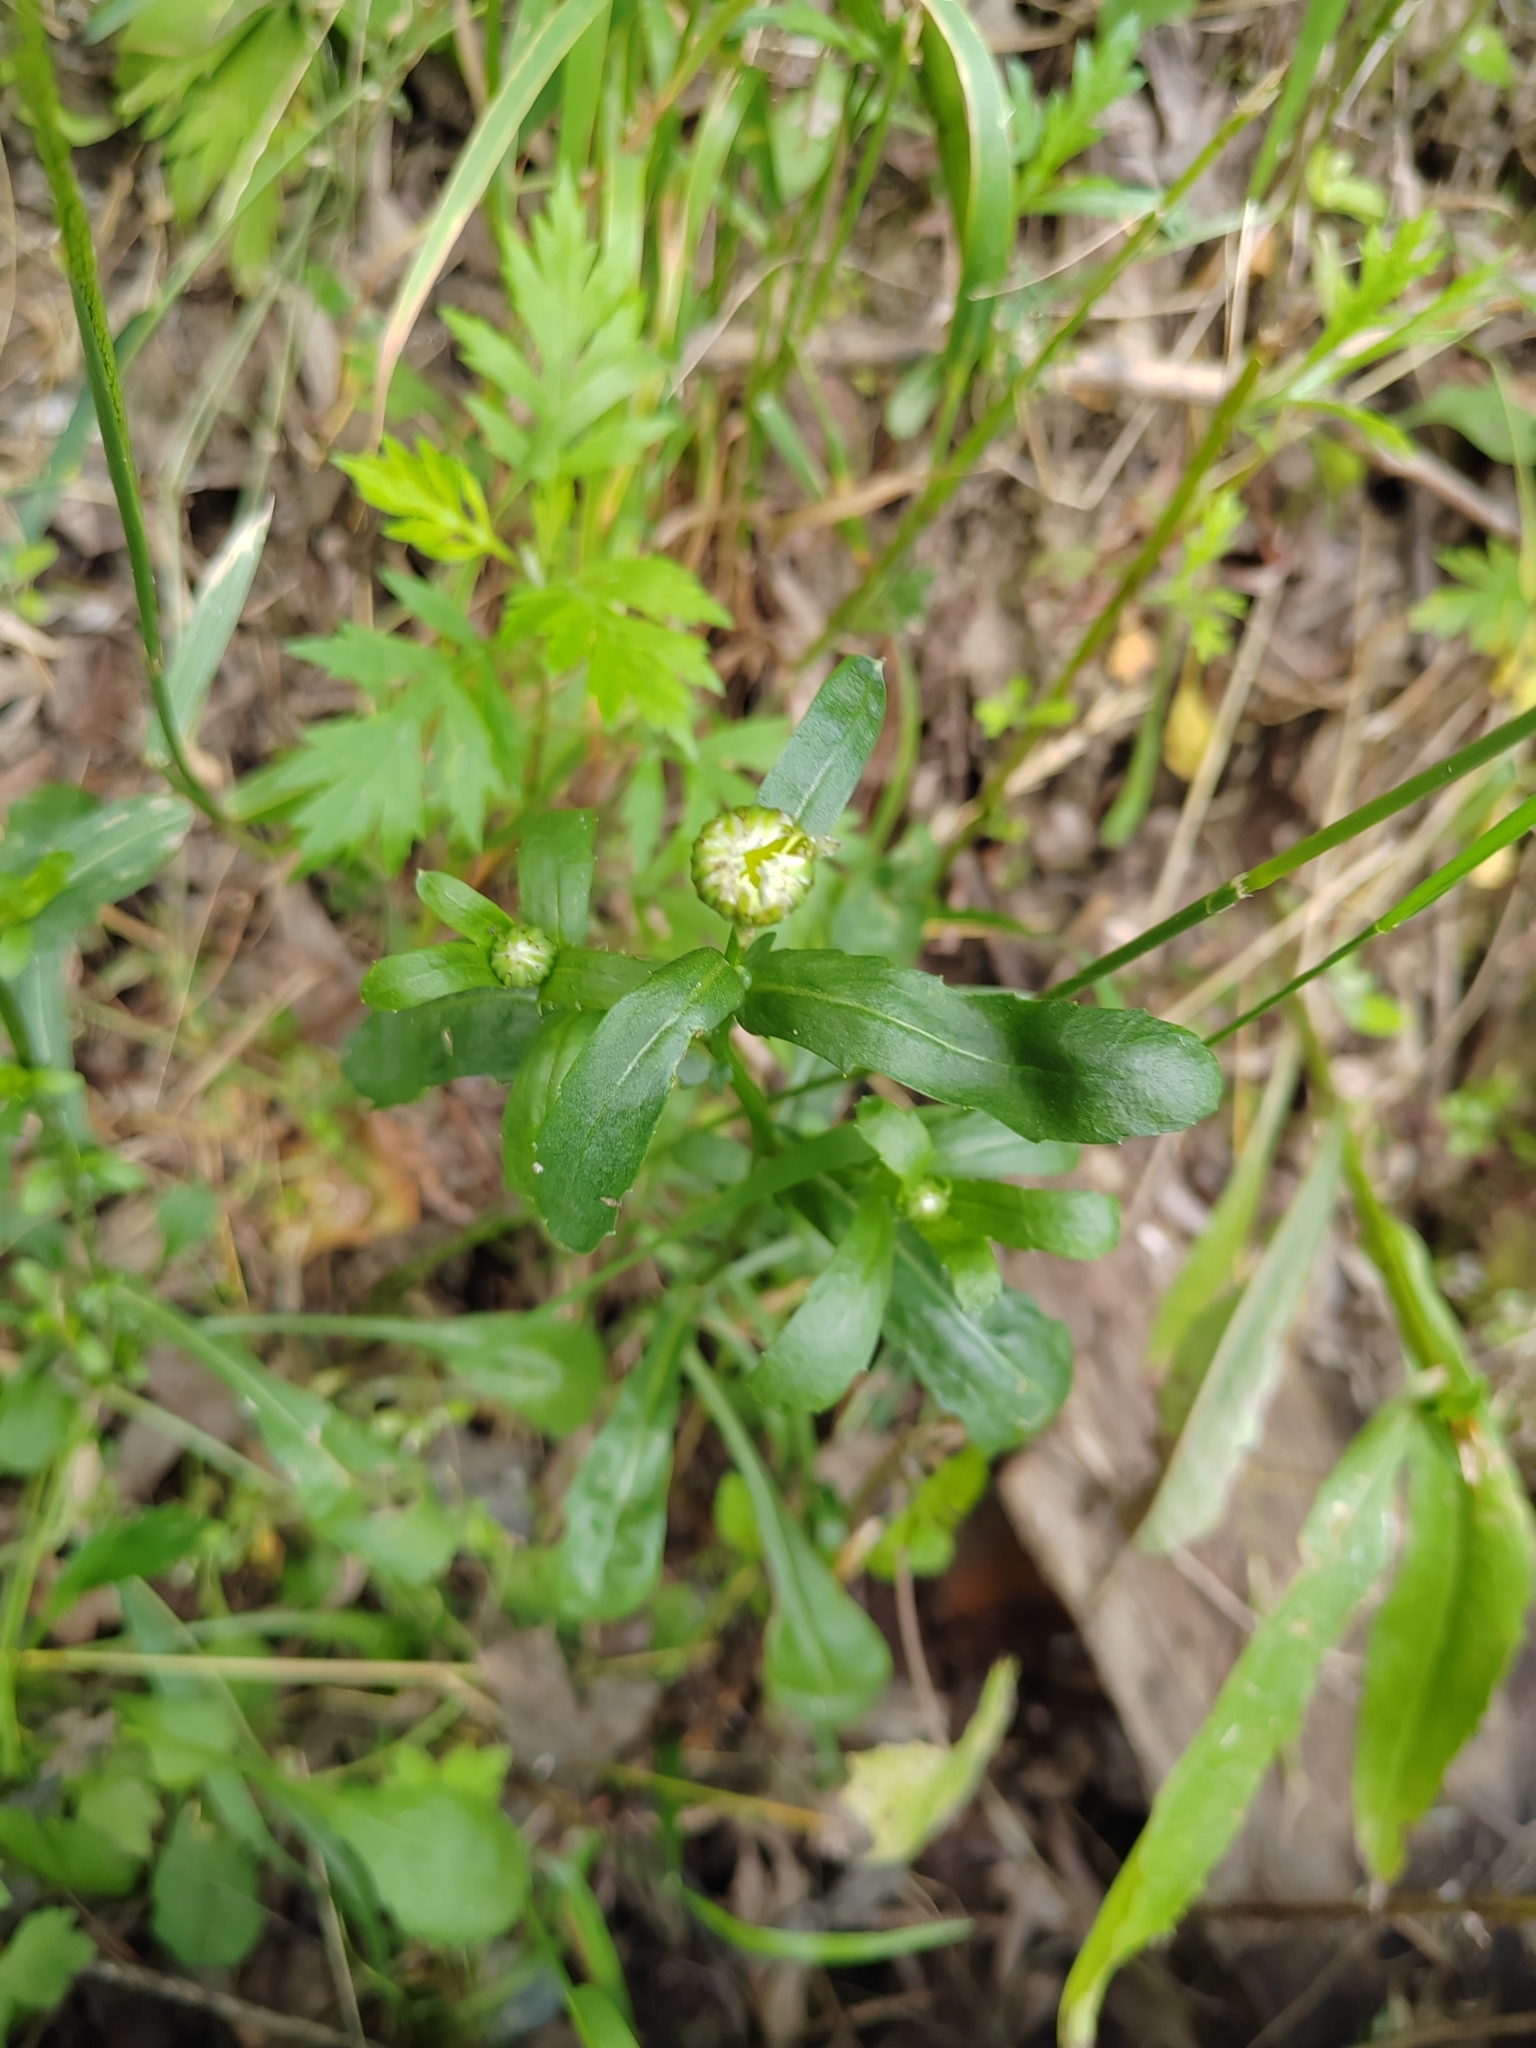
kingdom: Plantae
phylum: Tracheophyta
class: Magnoliopsida
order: Asterales
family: Asteraceae
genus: Leucanthemum
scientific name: Leucanthemum ircutianum
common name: Daisy
